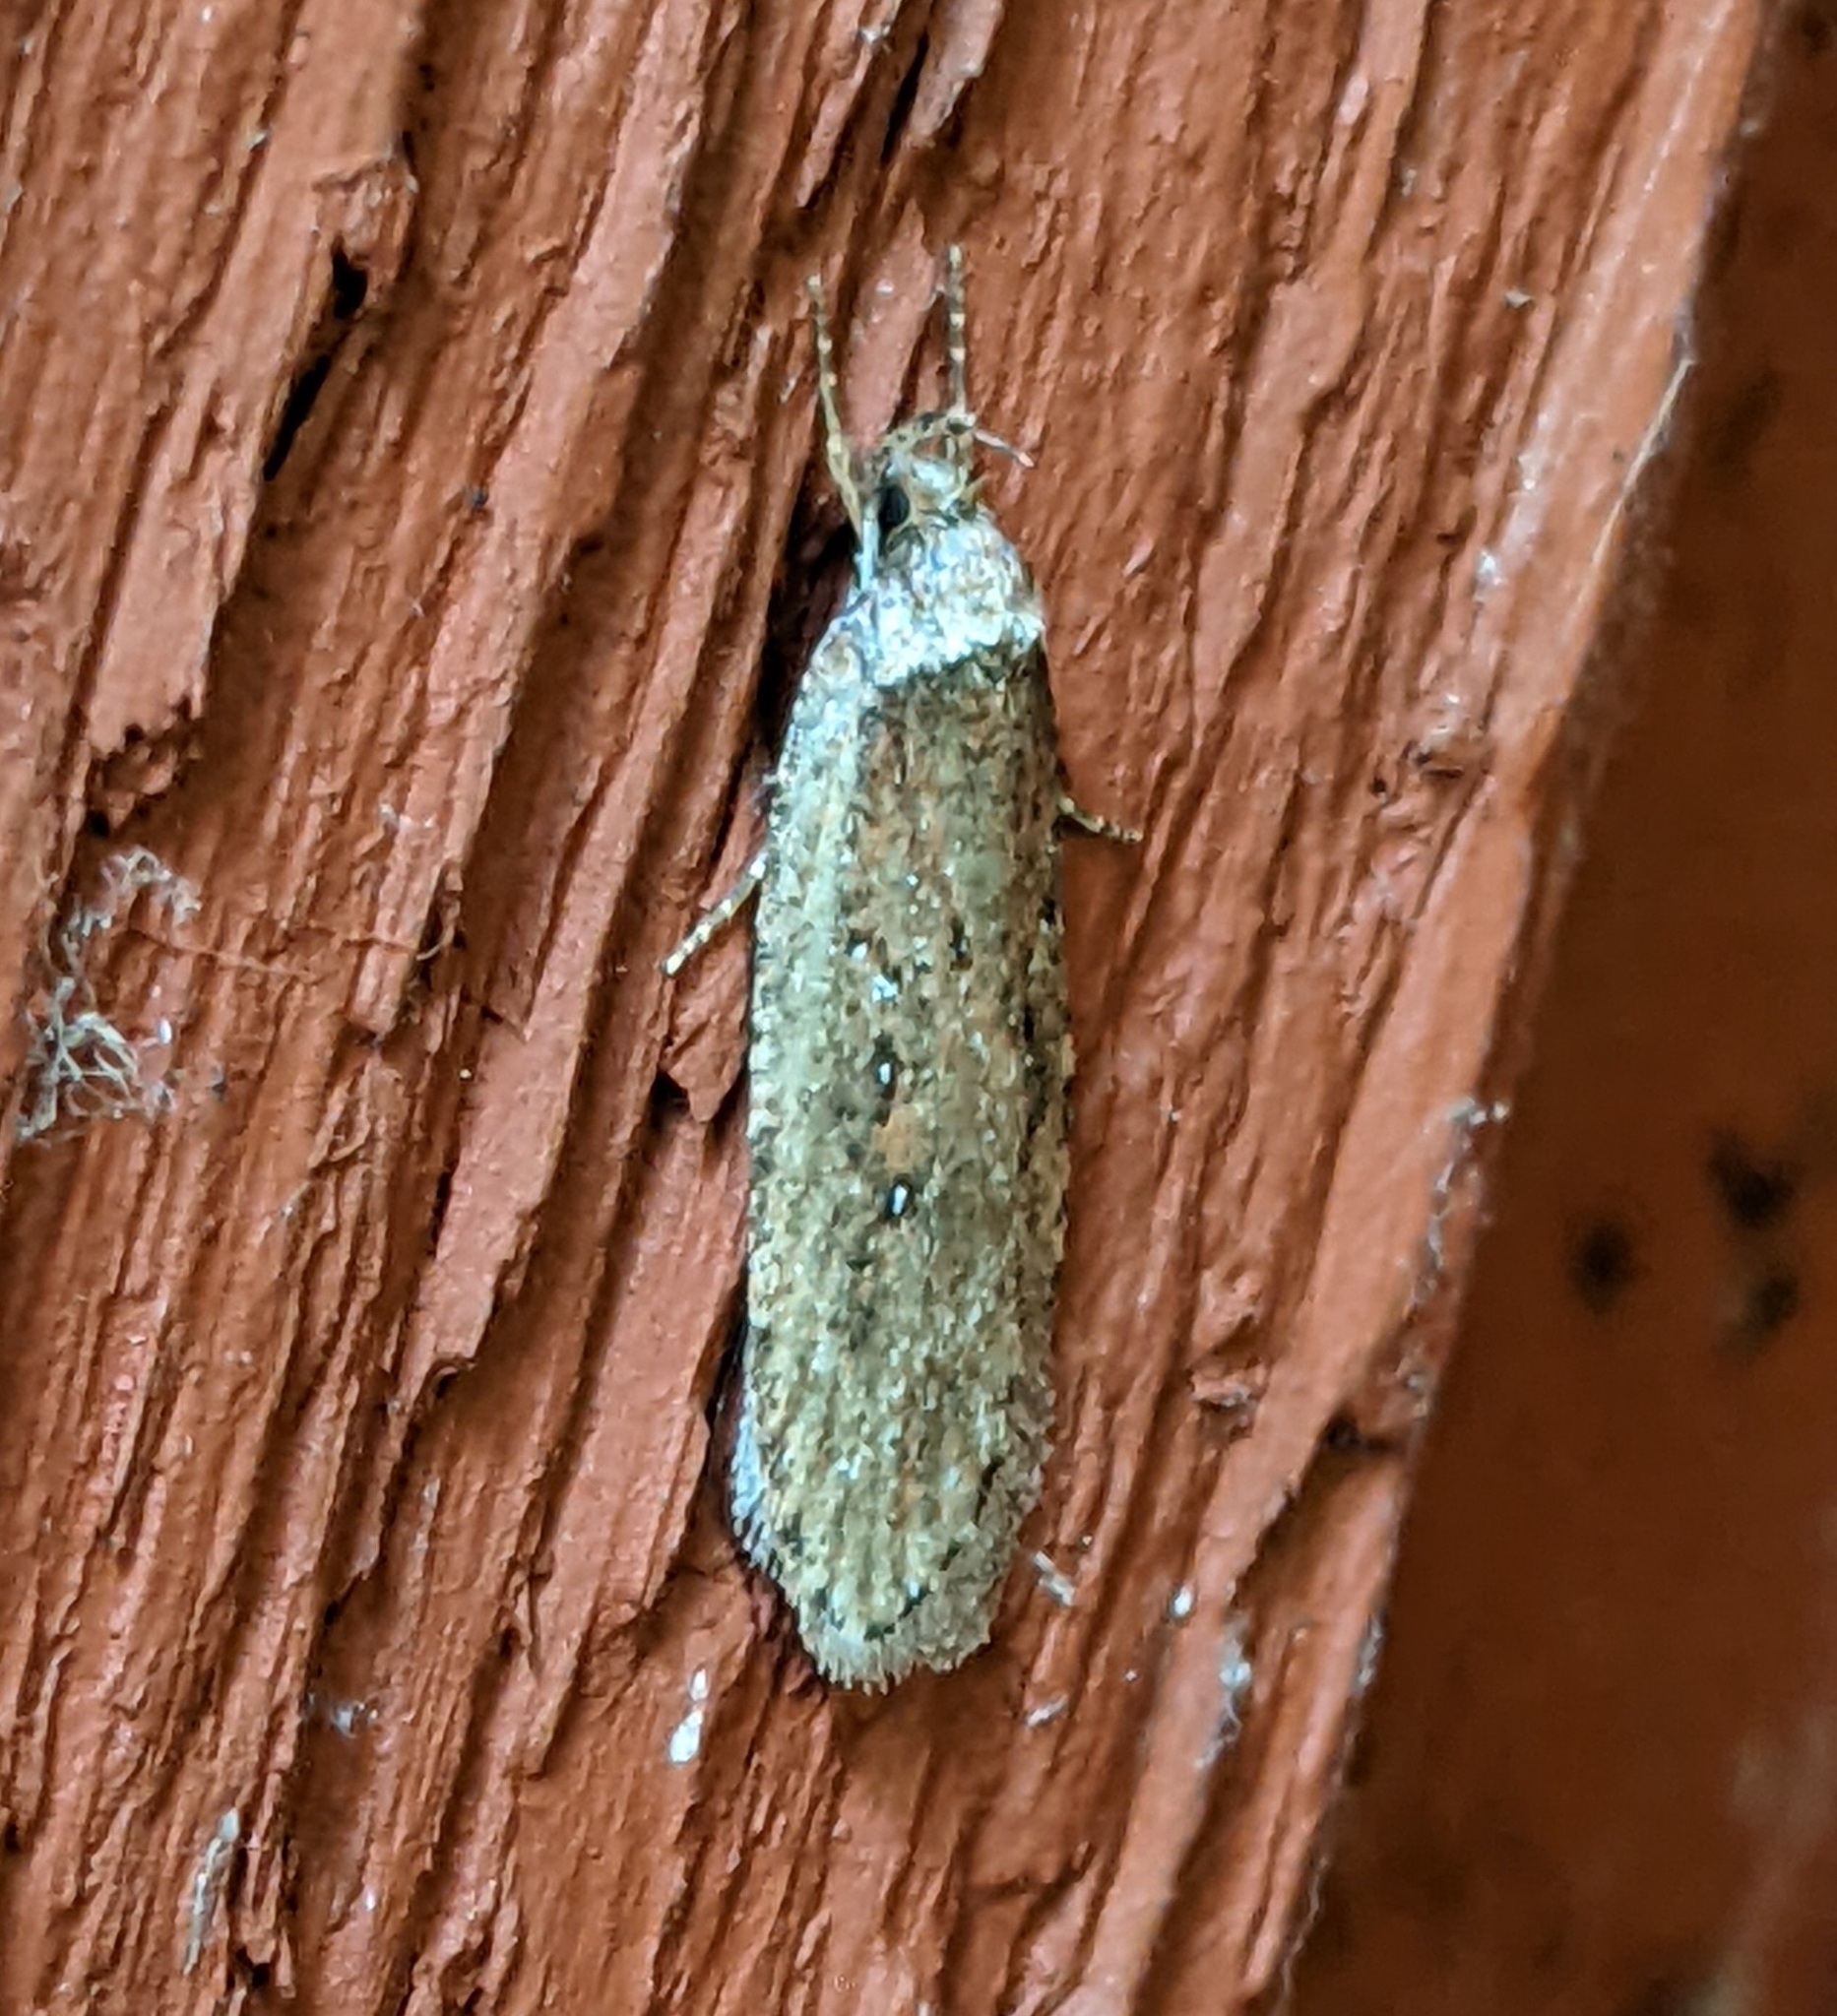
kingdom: Animalia
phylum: Arthropoda
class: Insecta
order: Lepidoptera
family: Depressariidae
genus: Agonopterix
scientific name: Agonopterix rosaciliella
